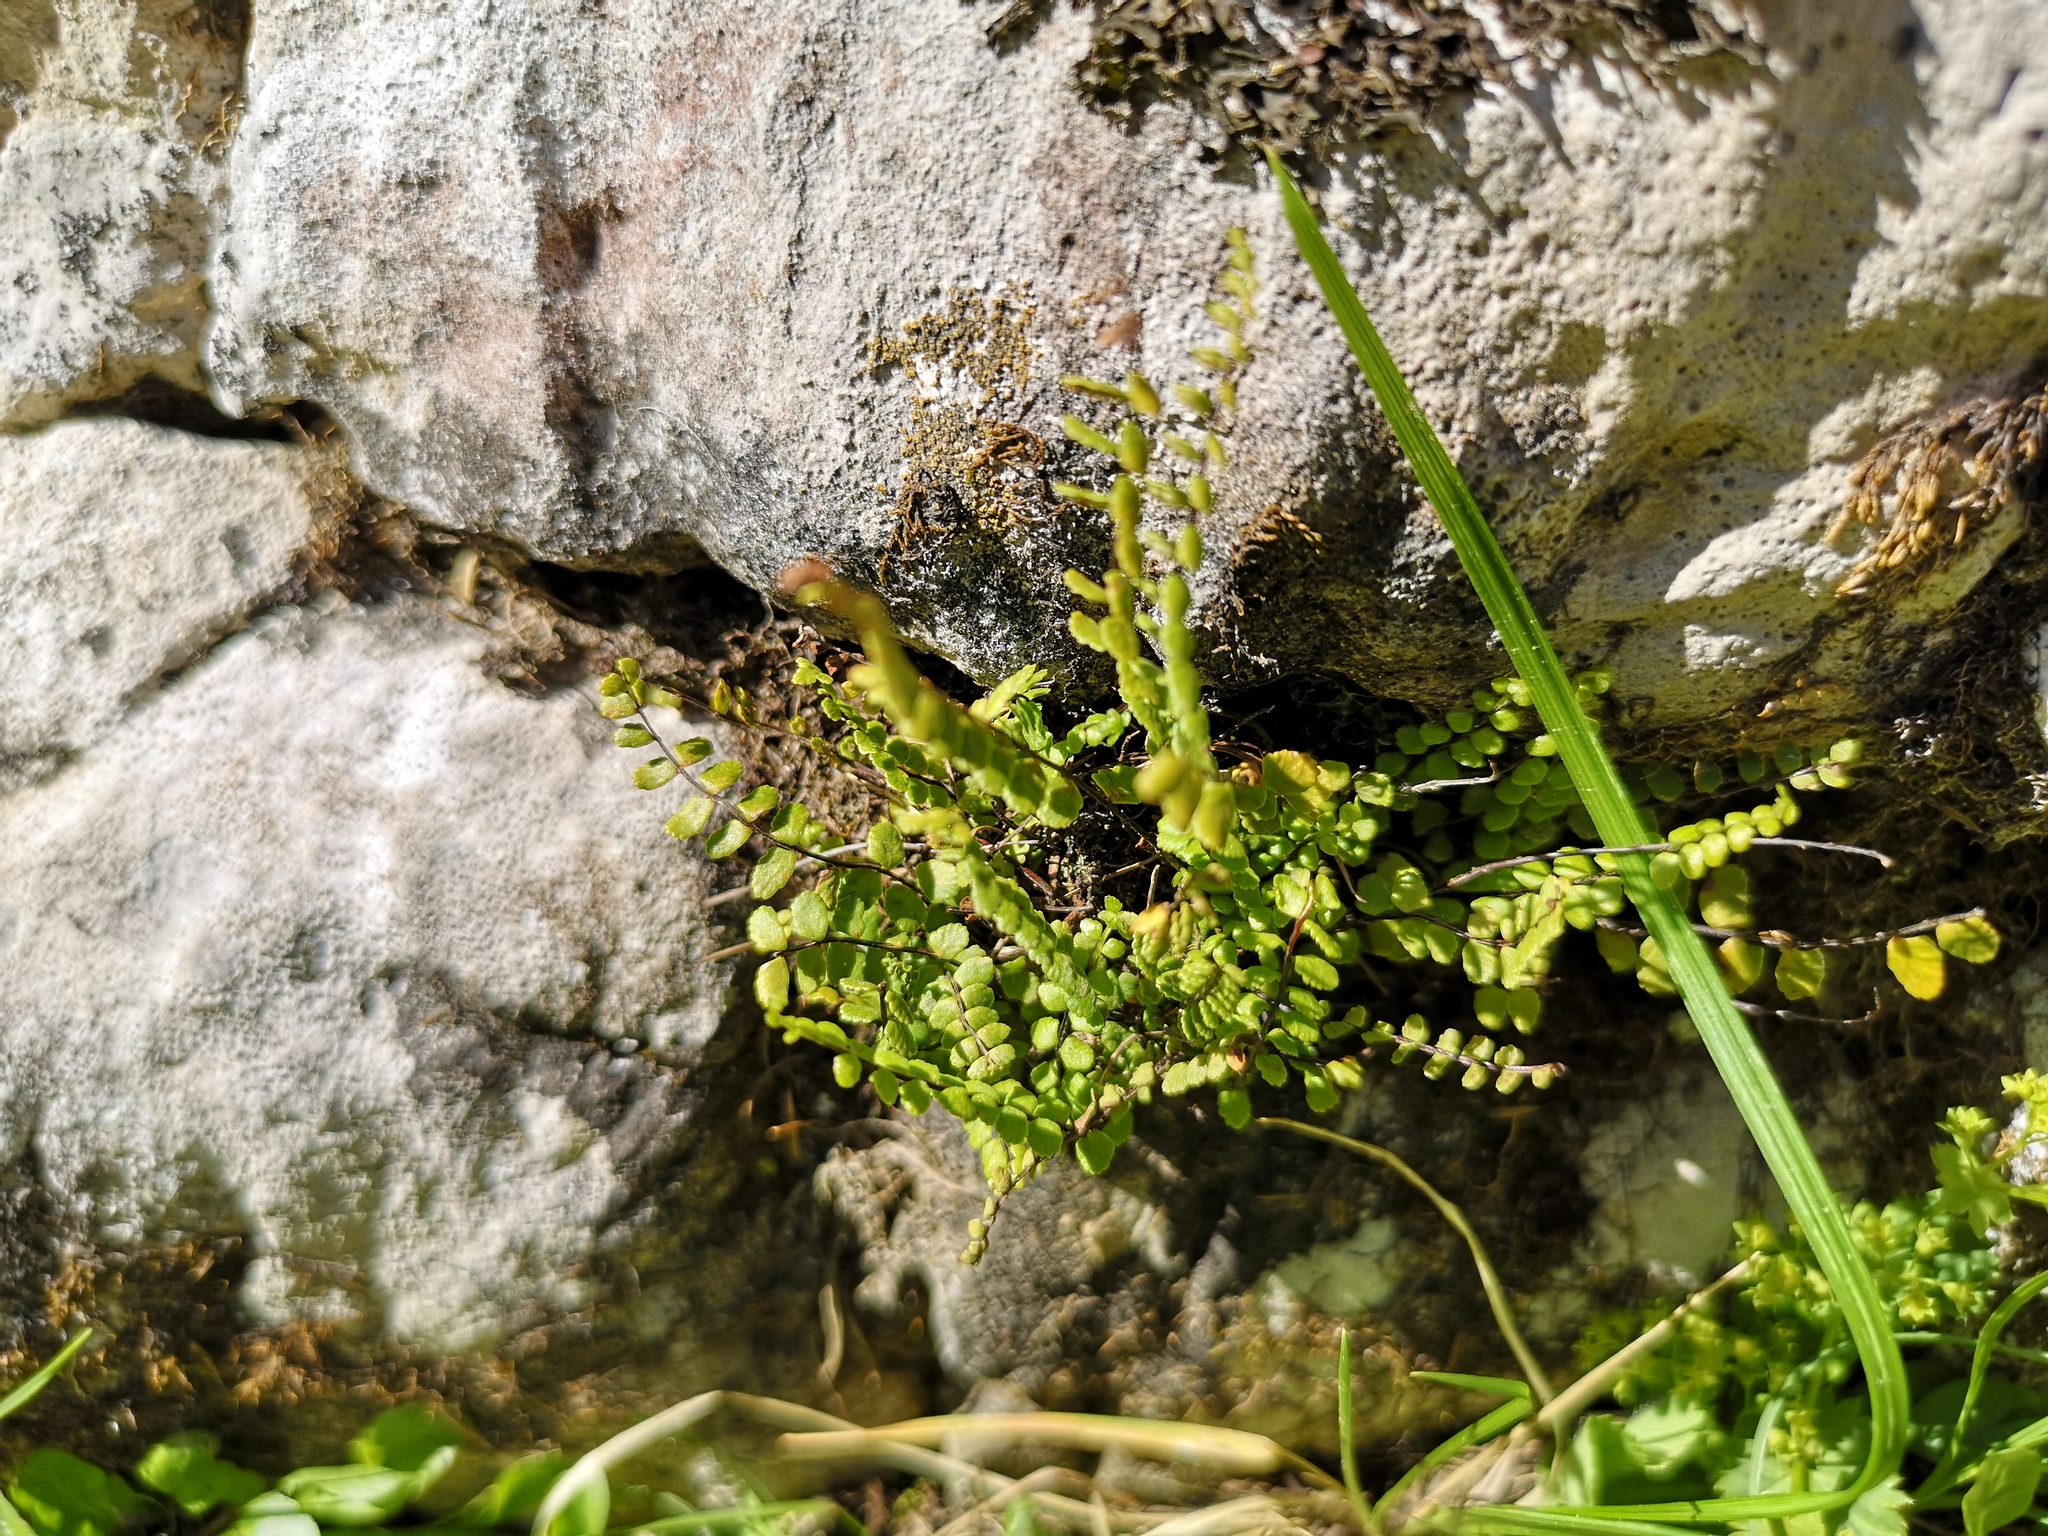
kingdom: Plantae
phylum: Tracheophyta
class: Polypodiopsida
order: Polypodiales
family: Aspleniaceae
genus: Asplenium
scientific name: Asplenium trichomanes
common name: Maidenhair spleenwort
